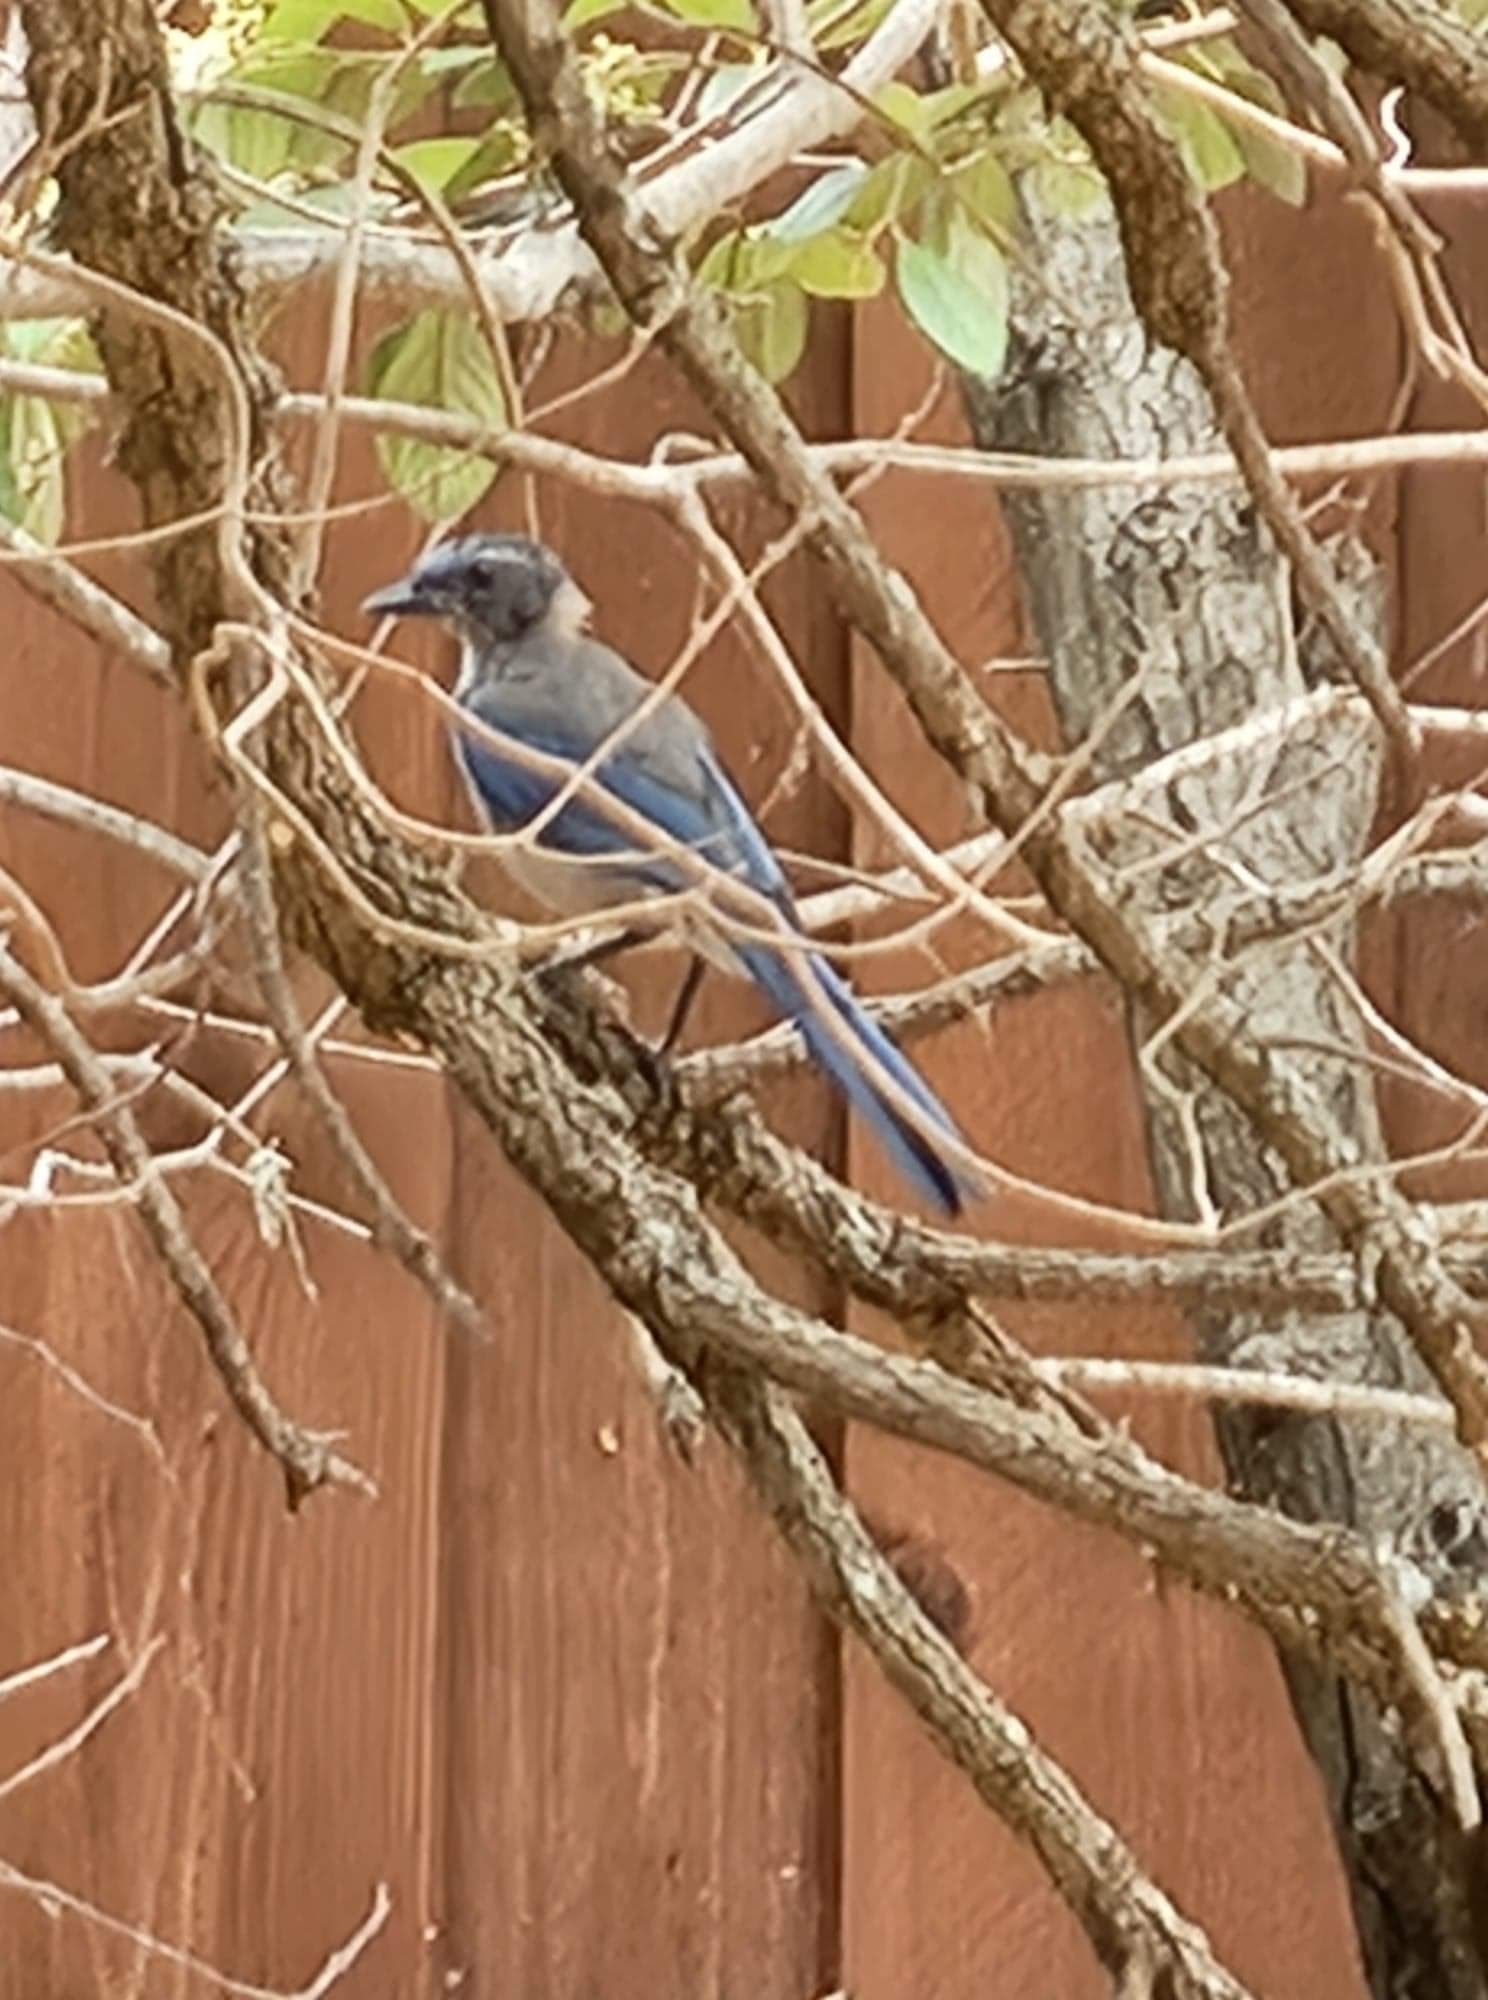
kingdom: Animalia
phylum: Chordata
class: Aves
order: Passeriformes
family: Corvidae
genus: Aphelocoma
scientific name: Aphelocoma californica
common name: California scrub-jay
